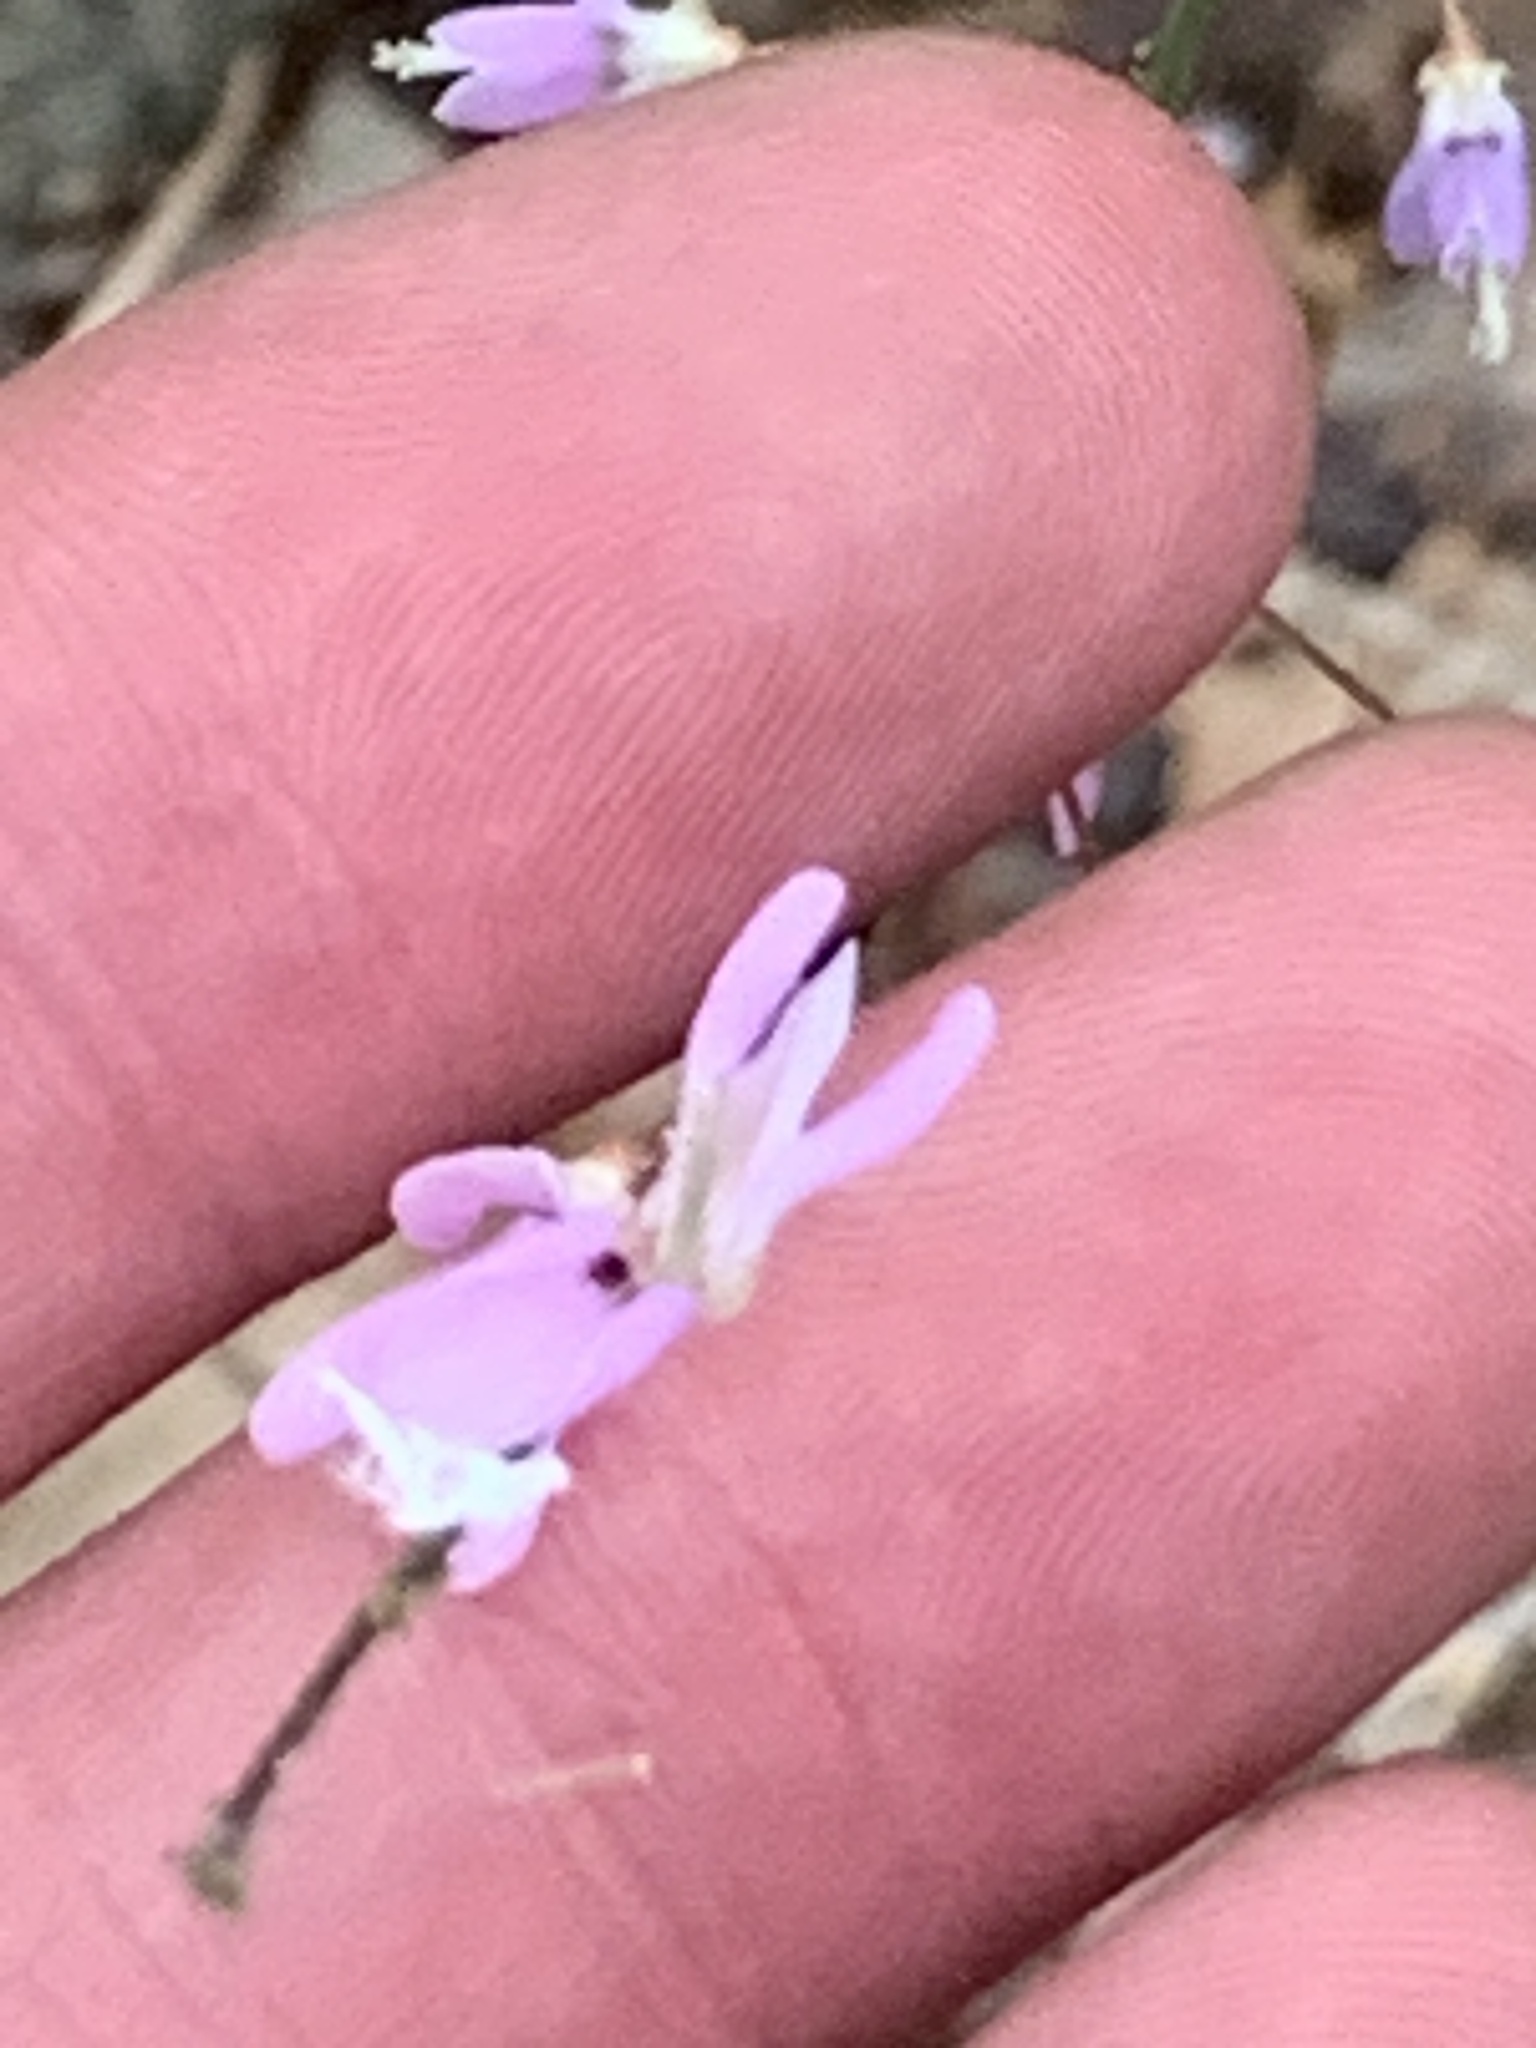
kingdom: Plantae
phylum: Tracheophyta
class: Magnoliopsida
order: Fabales
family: Fabaceae
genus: Hylodesmum
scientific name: Hylodesmum nudiflorum
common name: Bare-stemmed tick-trefoil
